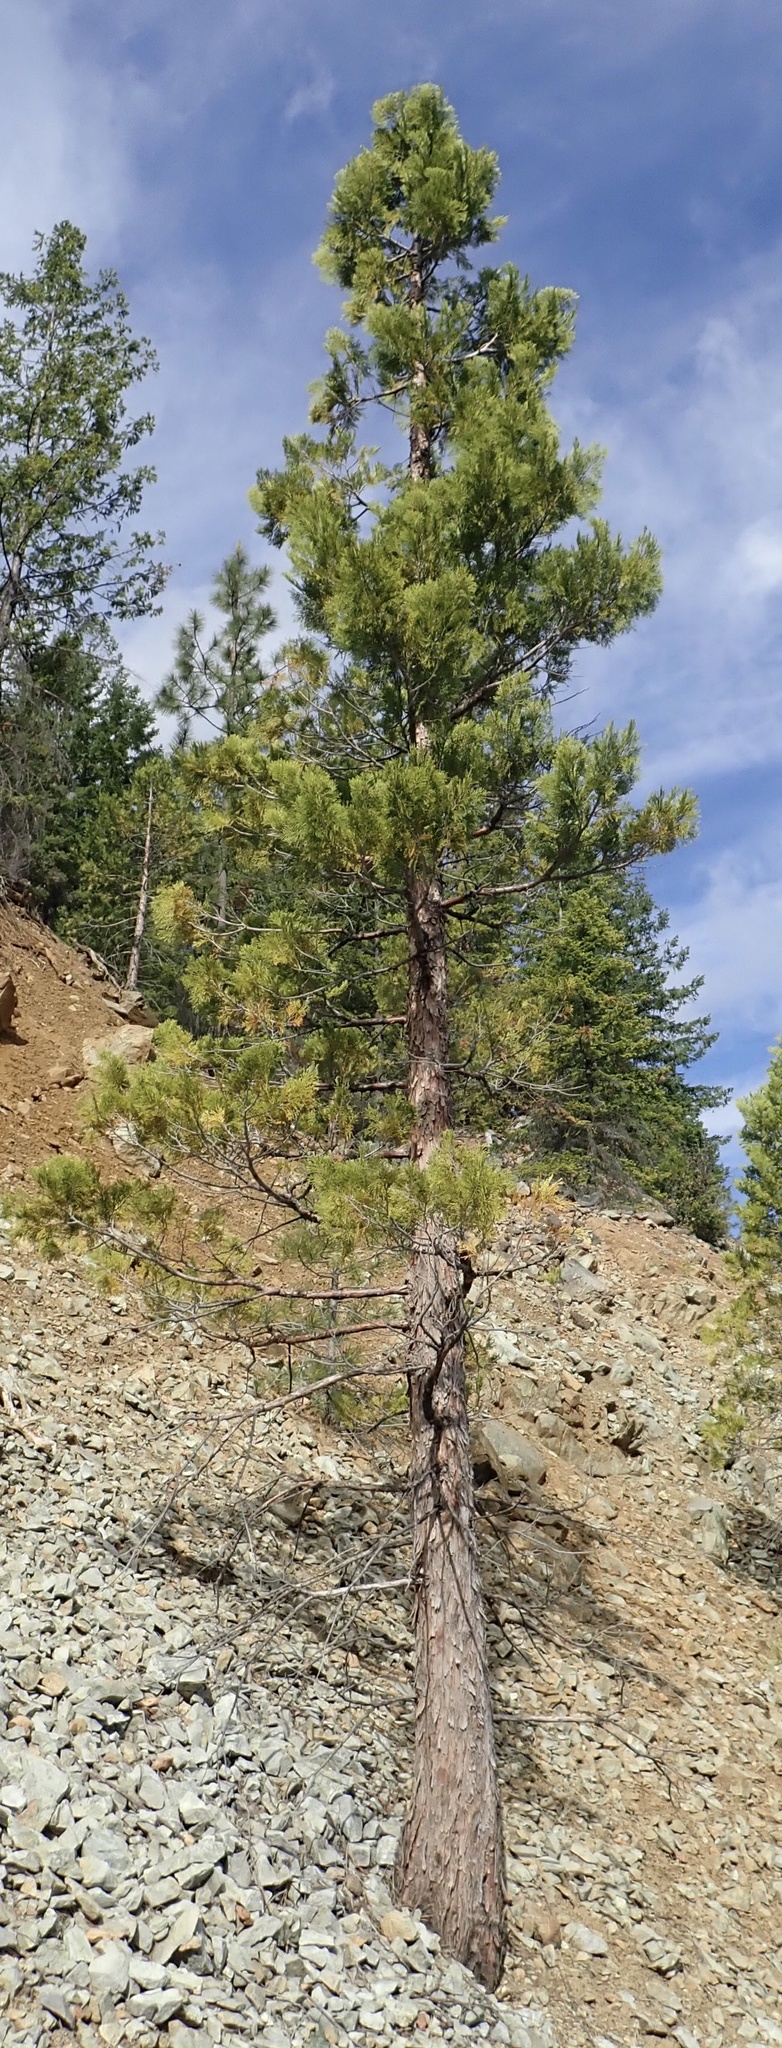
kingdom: Plantae
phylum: Tracheophyta
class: Pinopsida
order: Pinales
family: Cupressaceae
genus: Calocedrus
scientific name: Calocedrus decurrens
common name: Californian incense-cedar
